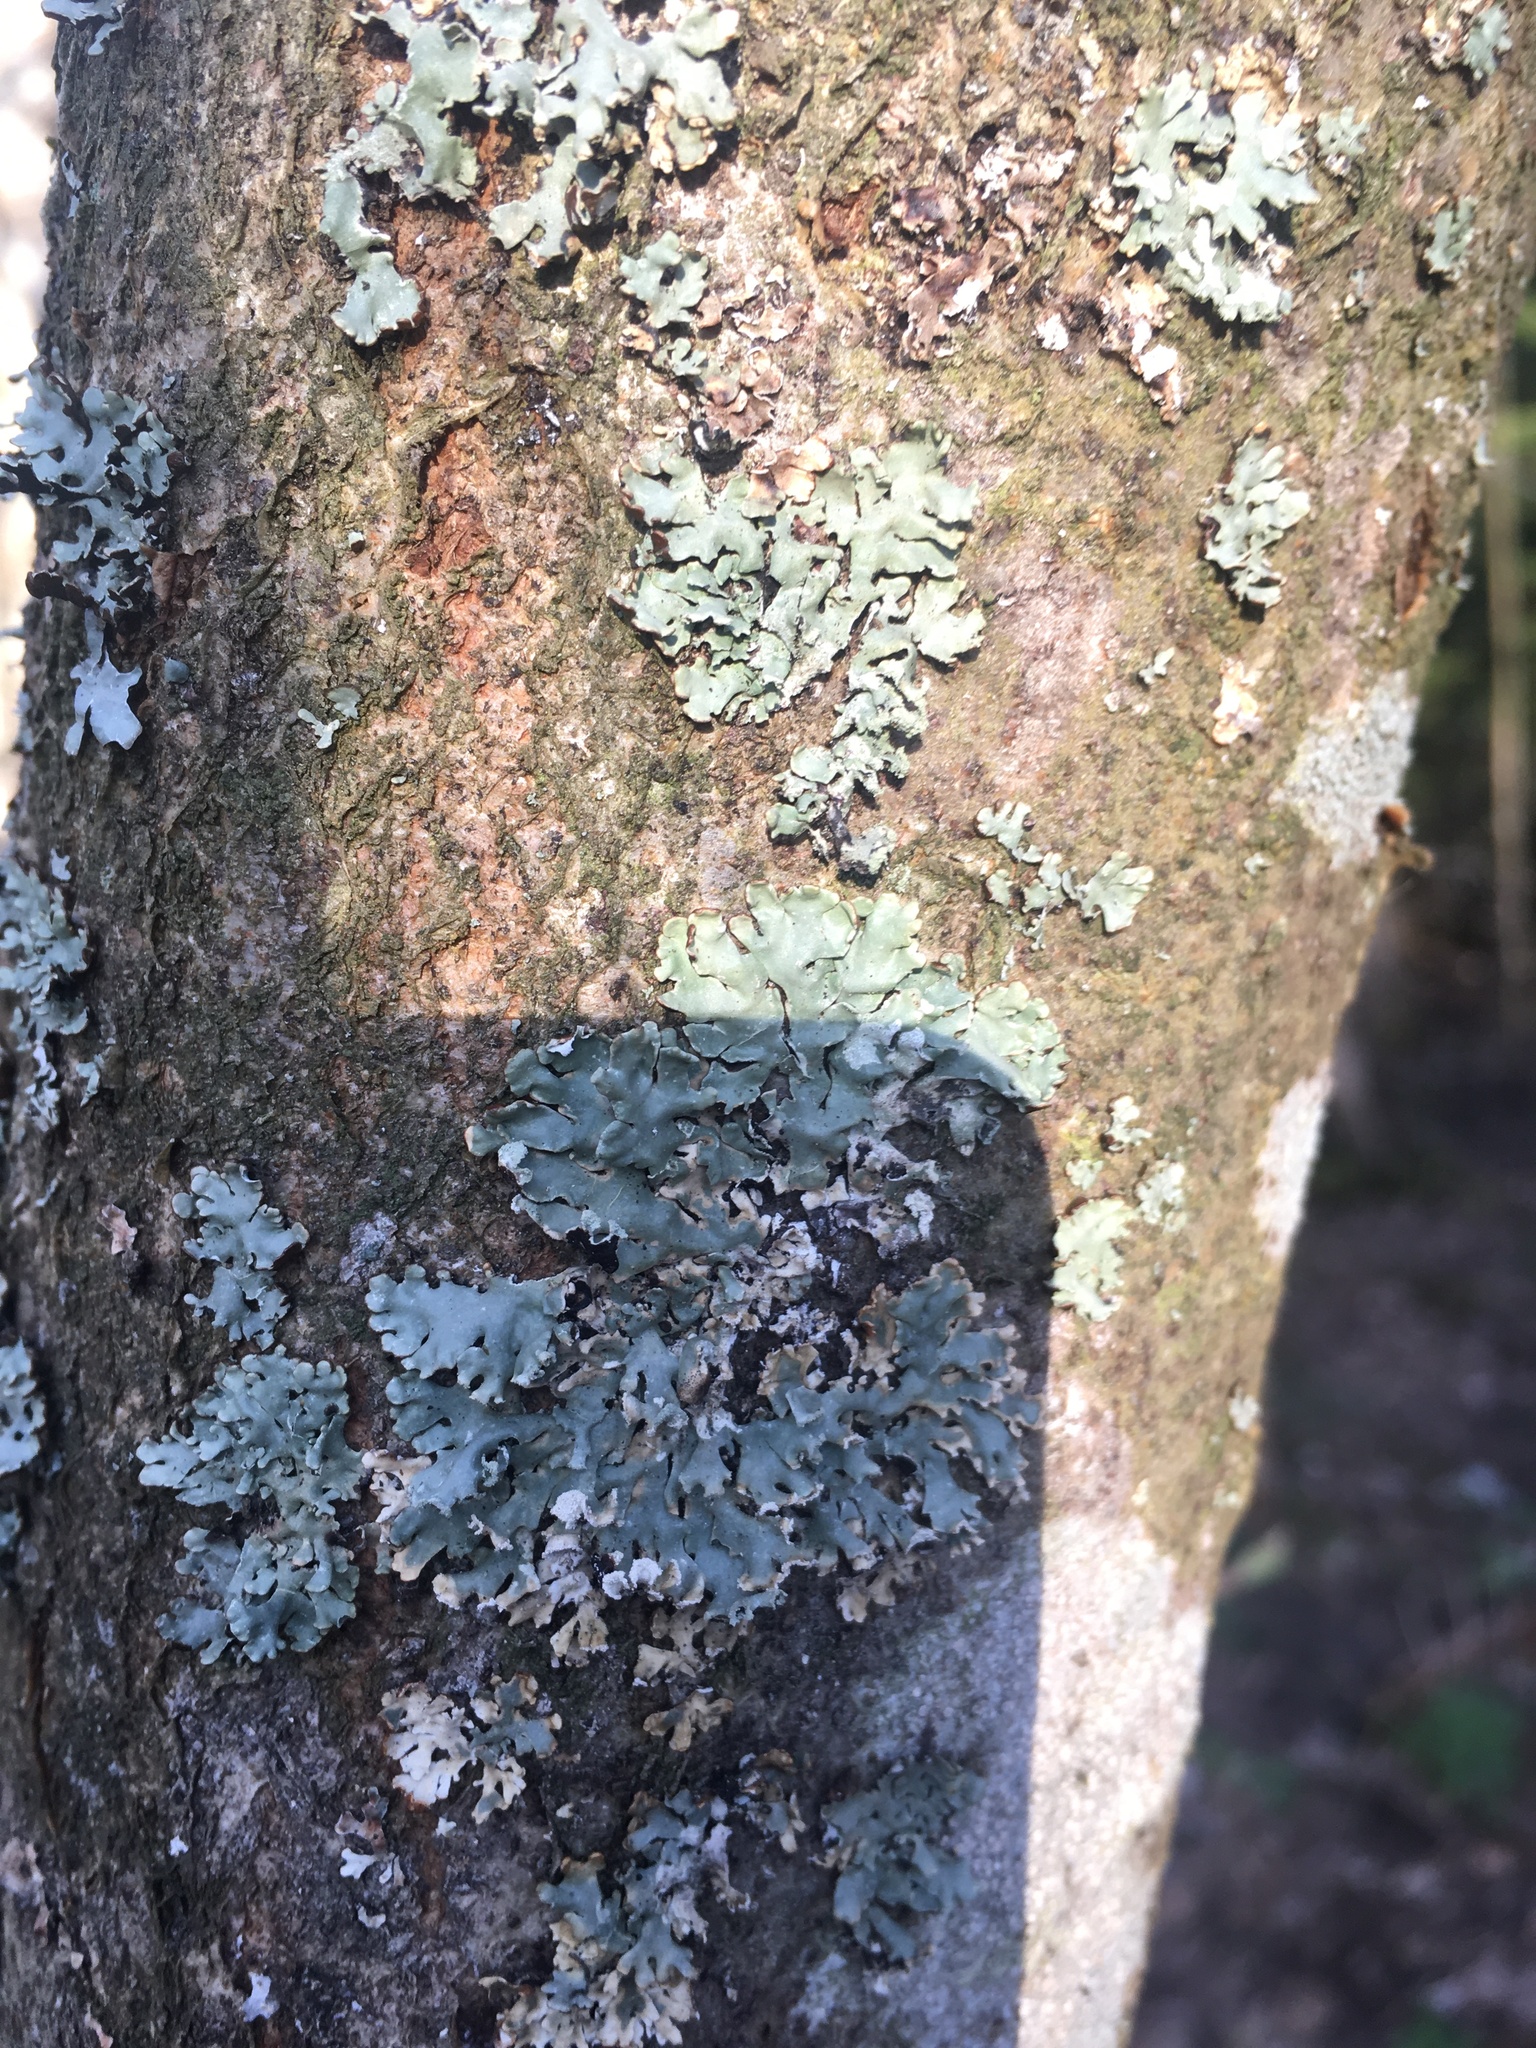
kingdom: Fungi
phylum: Ascomycota
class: Lecanoromycetes
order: Lecanorales
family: Parmeliaceae
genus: Hypogymnia
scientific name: Hypogymnia physodes
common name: Dark crottle
